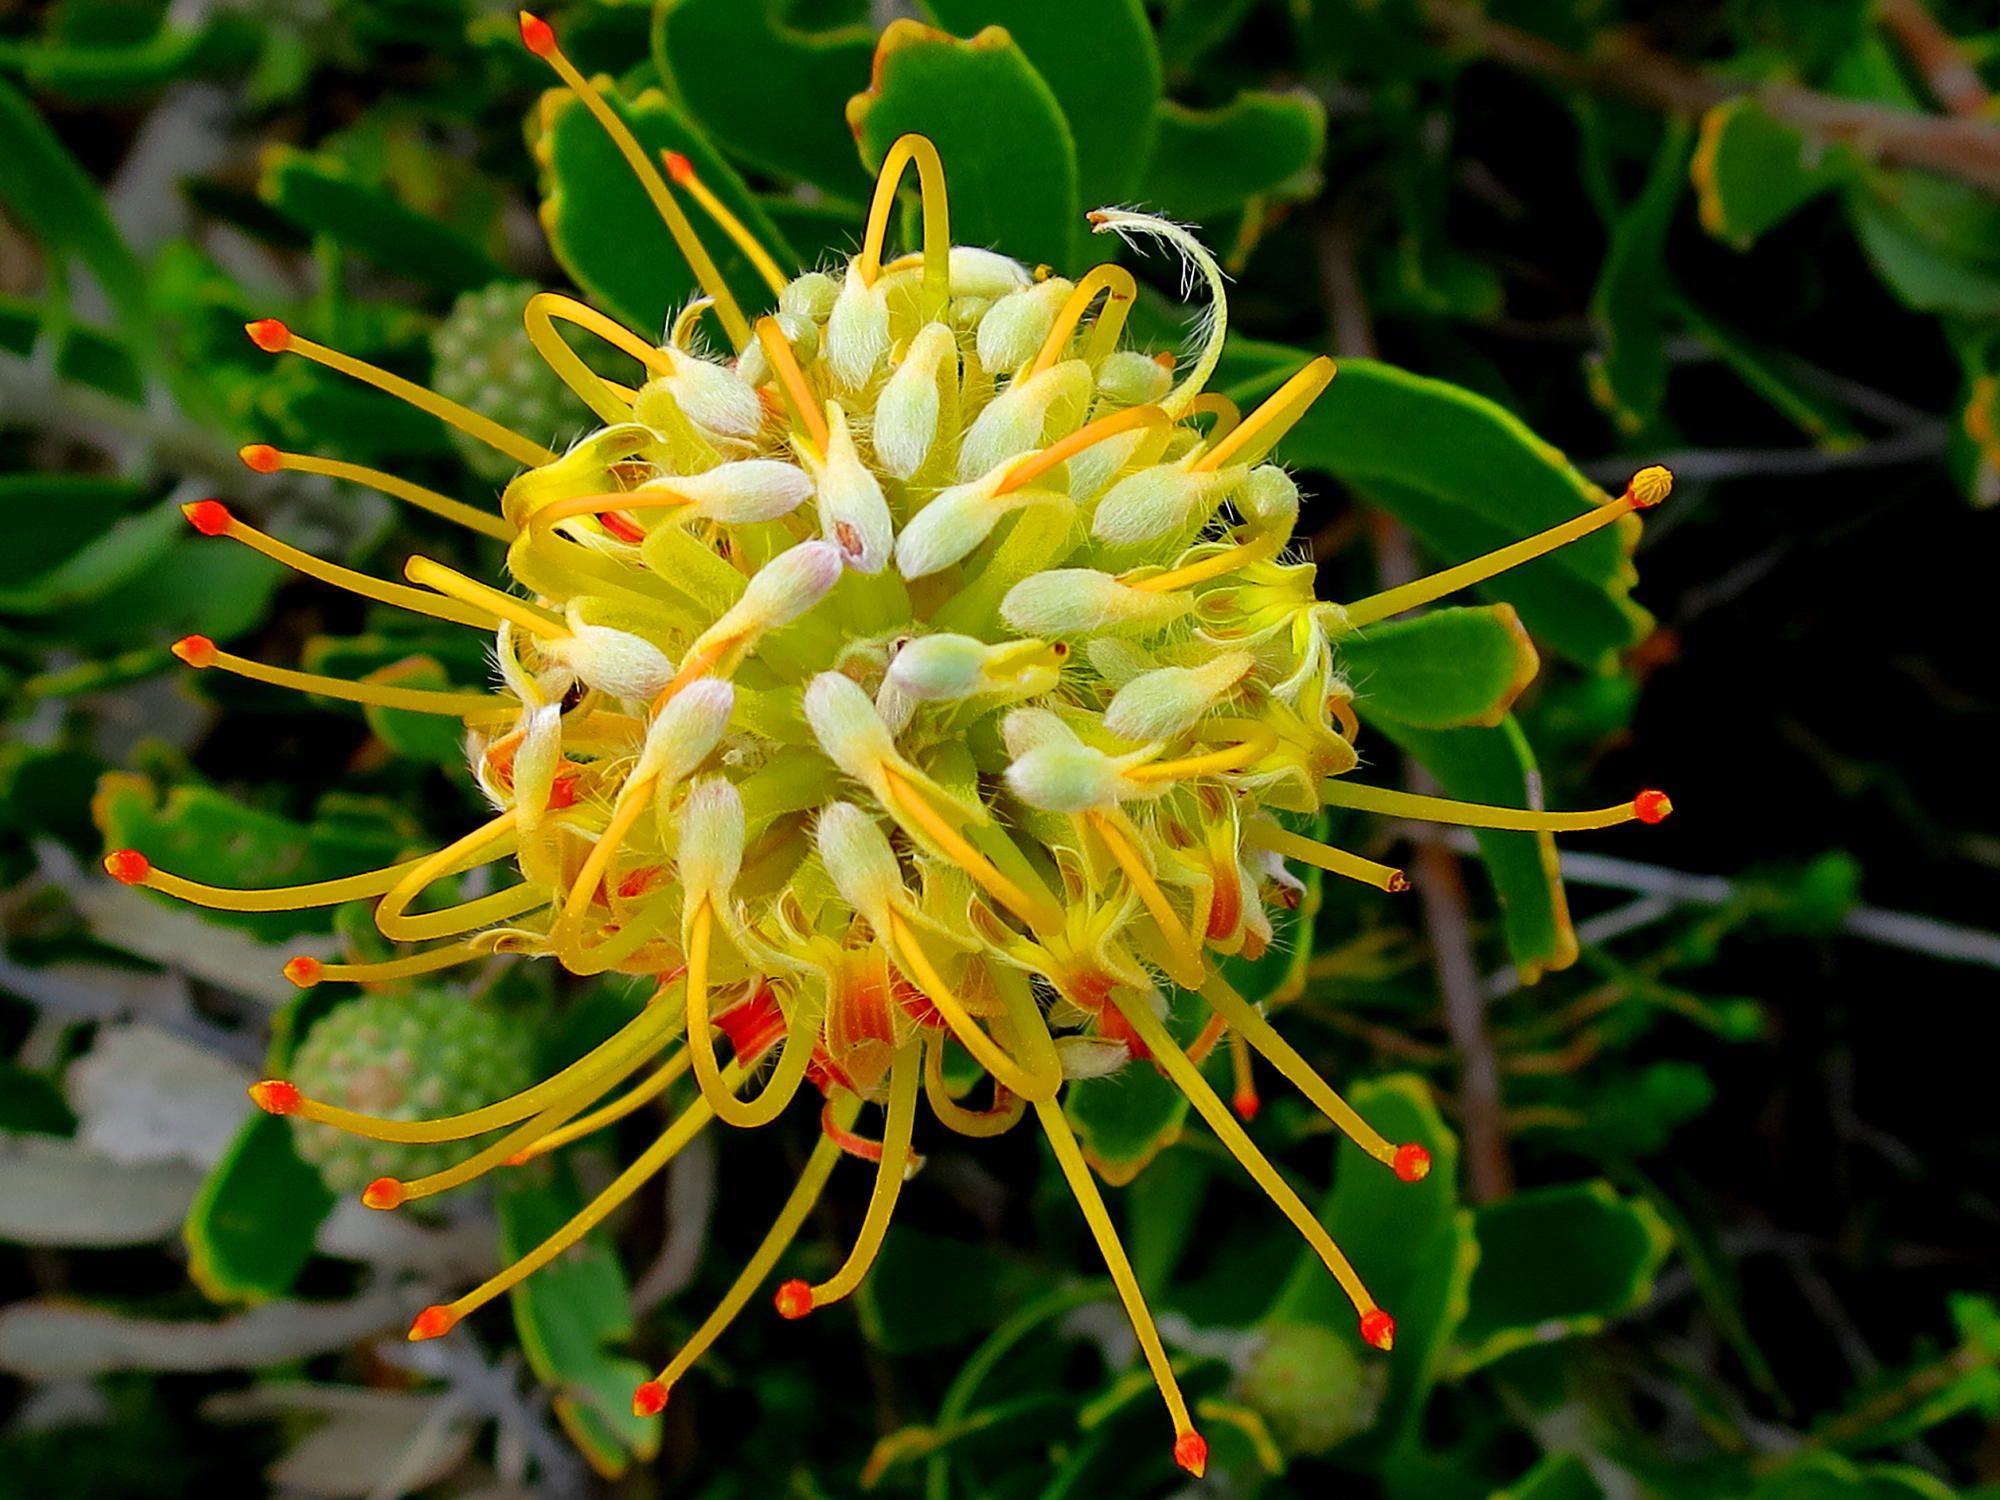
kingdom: Plantae
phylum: Tracheophyta
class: Magnoliopsida
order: Proteales
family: Proteaceae
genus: Leucospermum
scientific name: Leucospermum cuneiforme
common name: Common pincushion
